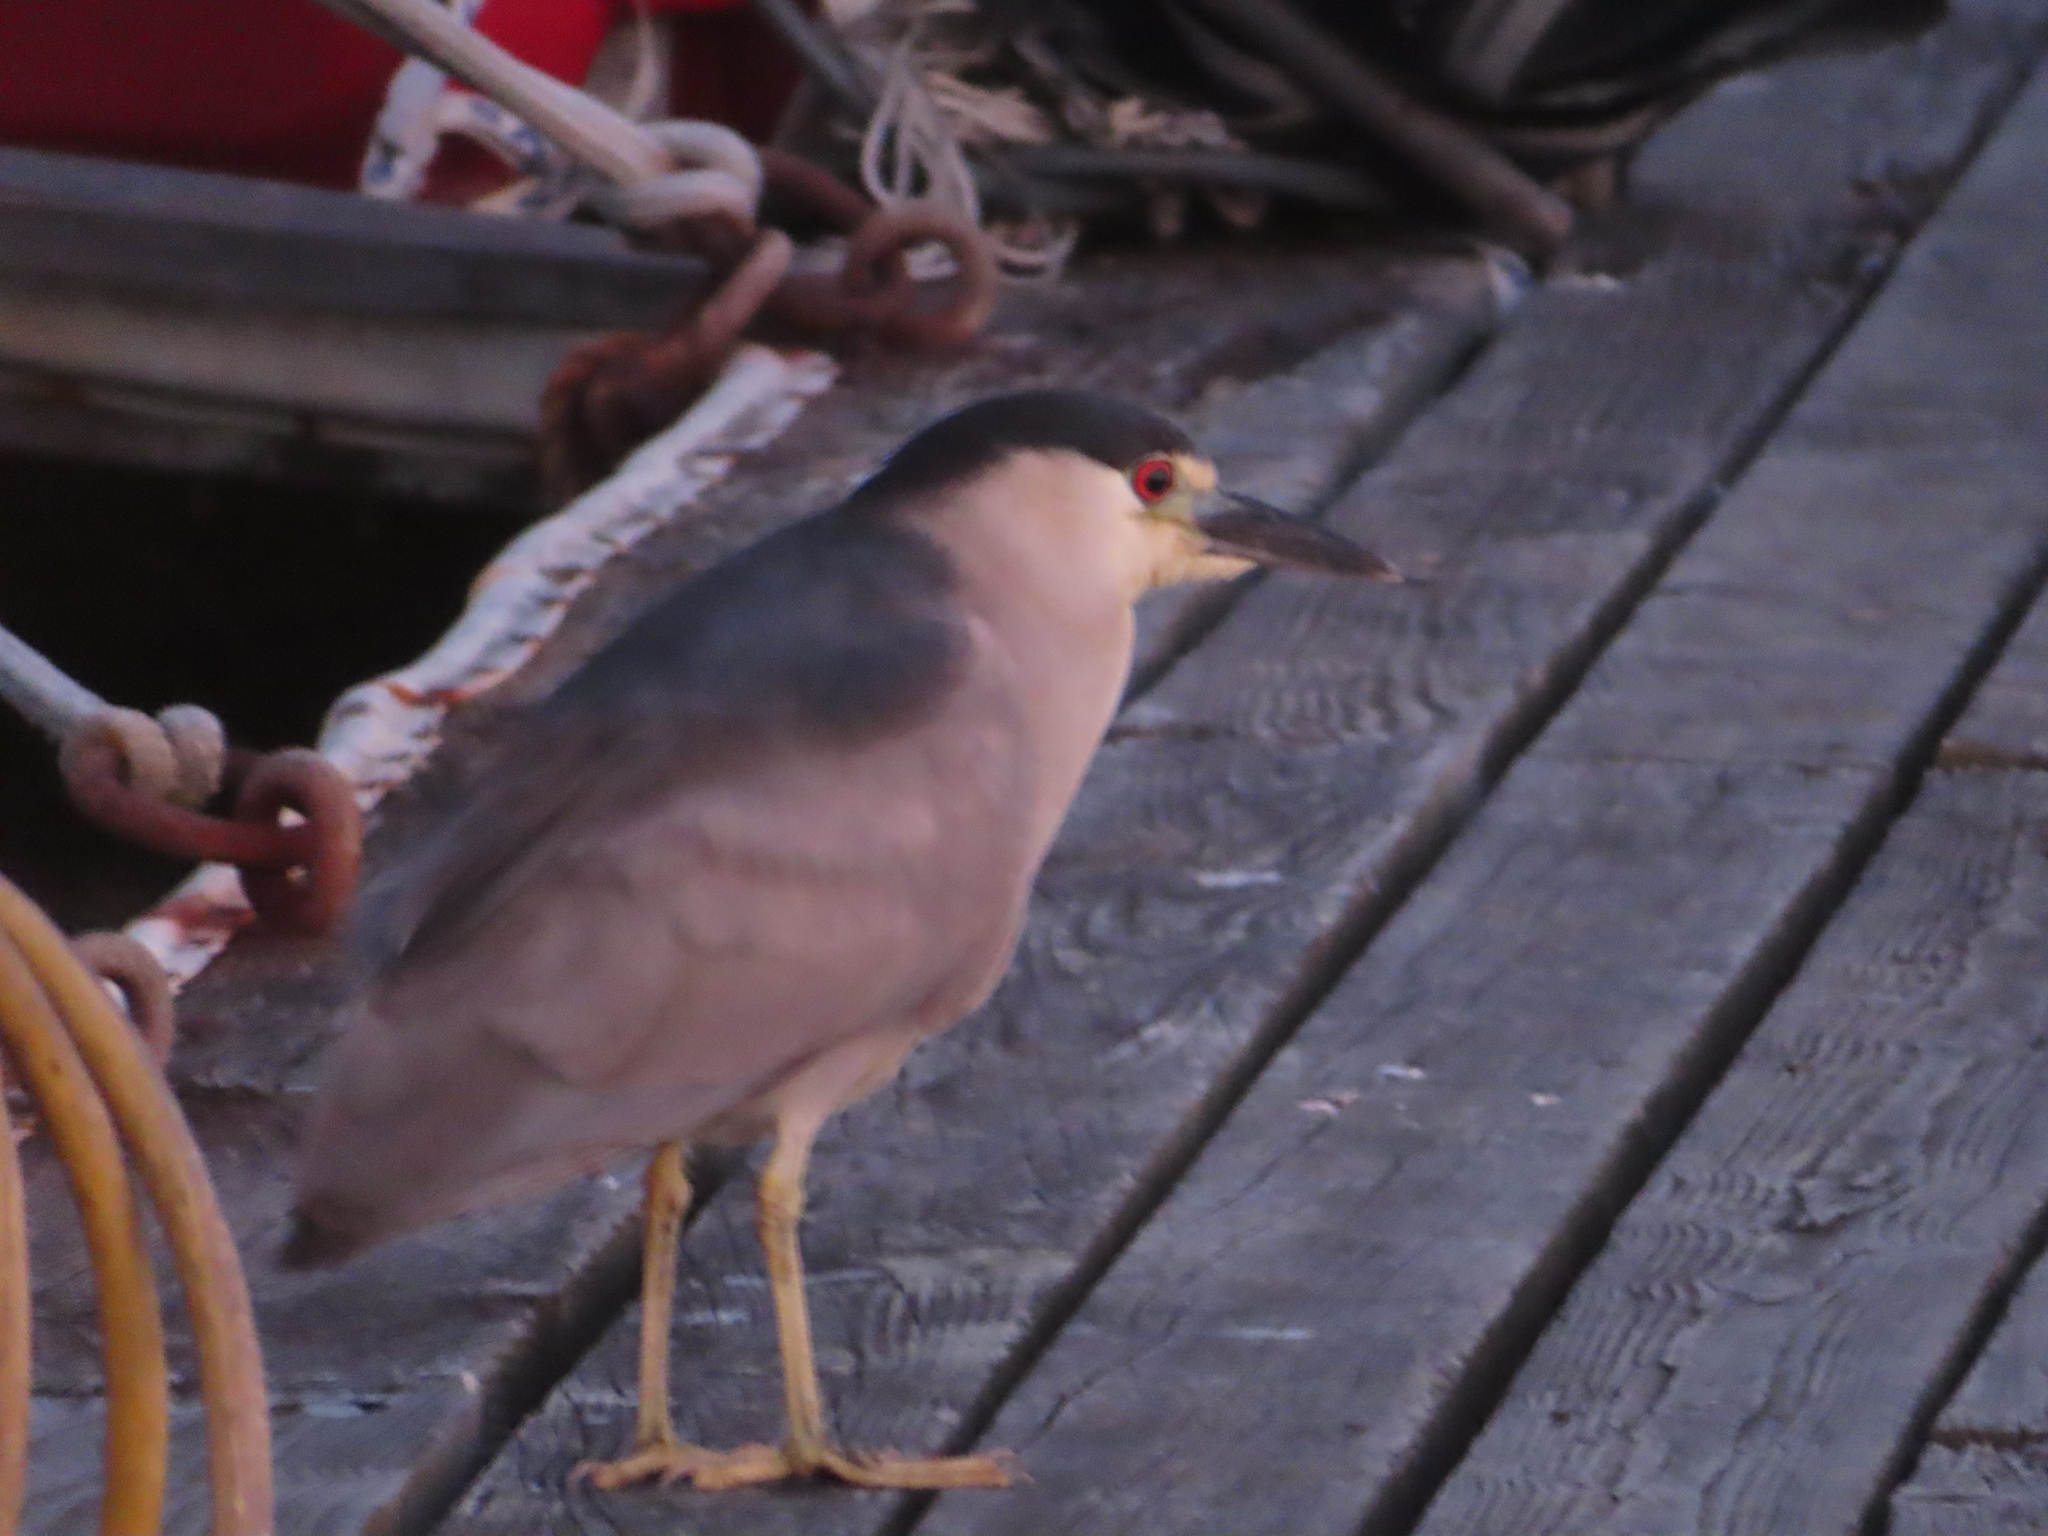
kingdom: Animalia
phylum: Chordata
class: Aves
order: Pelecaniformes
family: Ardeidae
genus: Nycticorax
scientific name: Nycticorax nycticorax
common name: Black-crowned night heron
